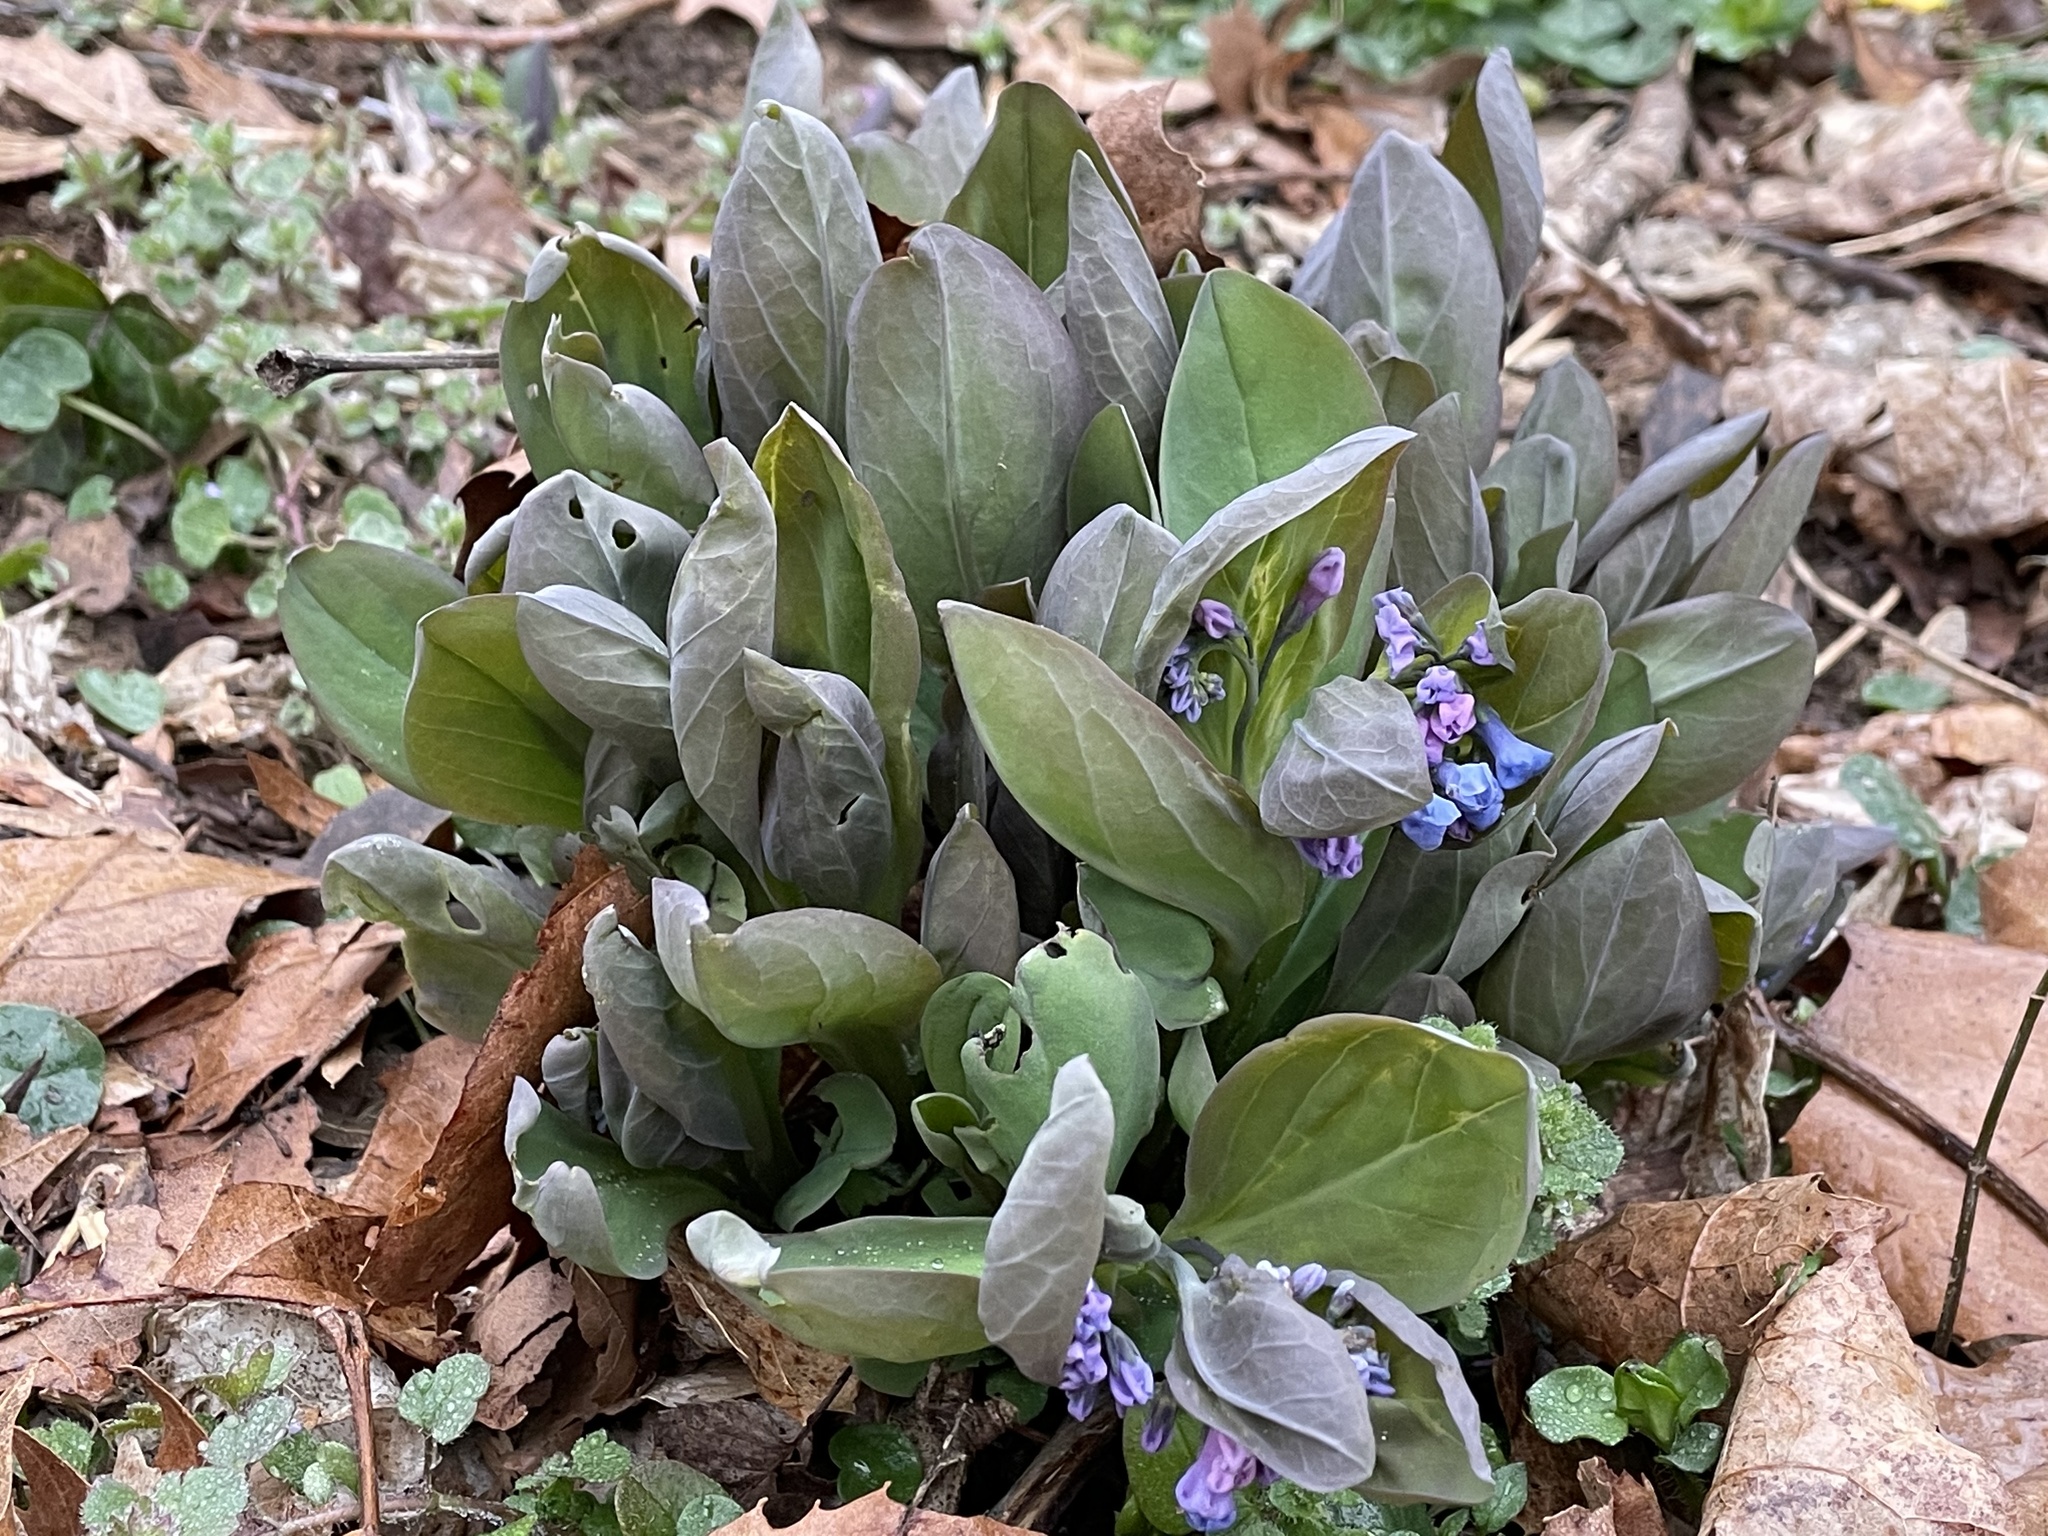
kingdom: Plantae
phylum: Tracheophyta
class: Magnoliopsida
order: Boraginales
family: Boraginaceae
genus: Mertensia
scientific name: Mertensia virginica
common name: Virginia bluebells
